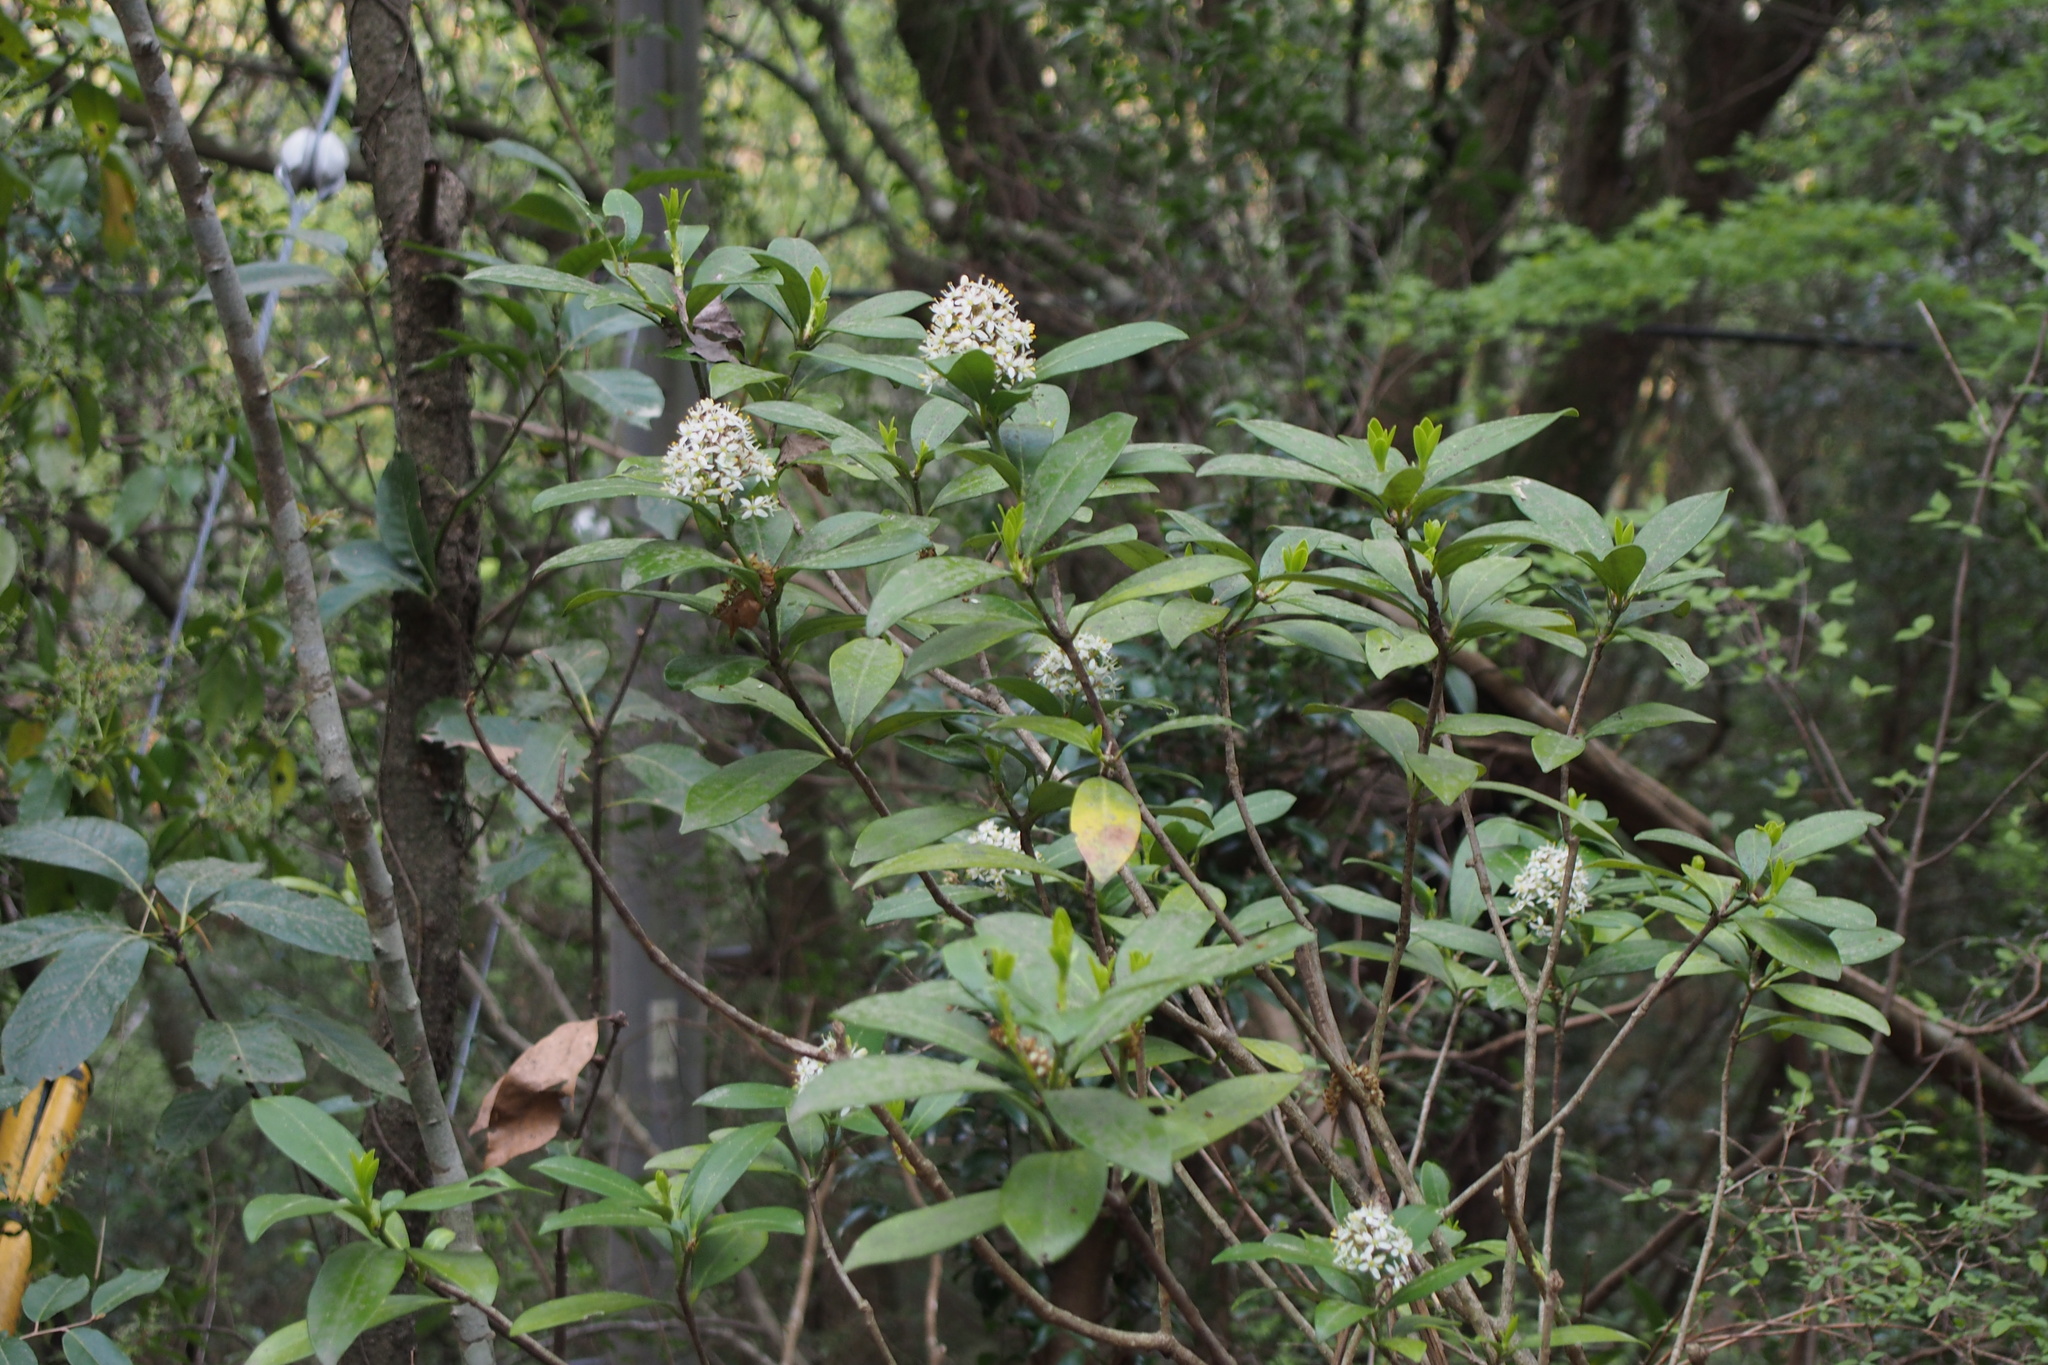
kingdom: Plantae
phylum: Tracheophyta
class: Magnoliopsida
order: Sapindales
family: Rutaceae
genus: Skimmia
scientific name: Skimmia japonica
